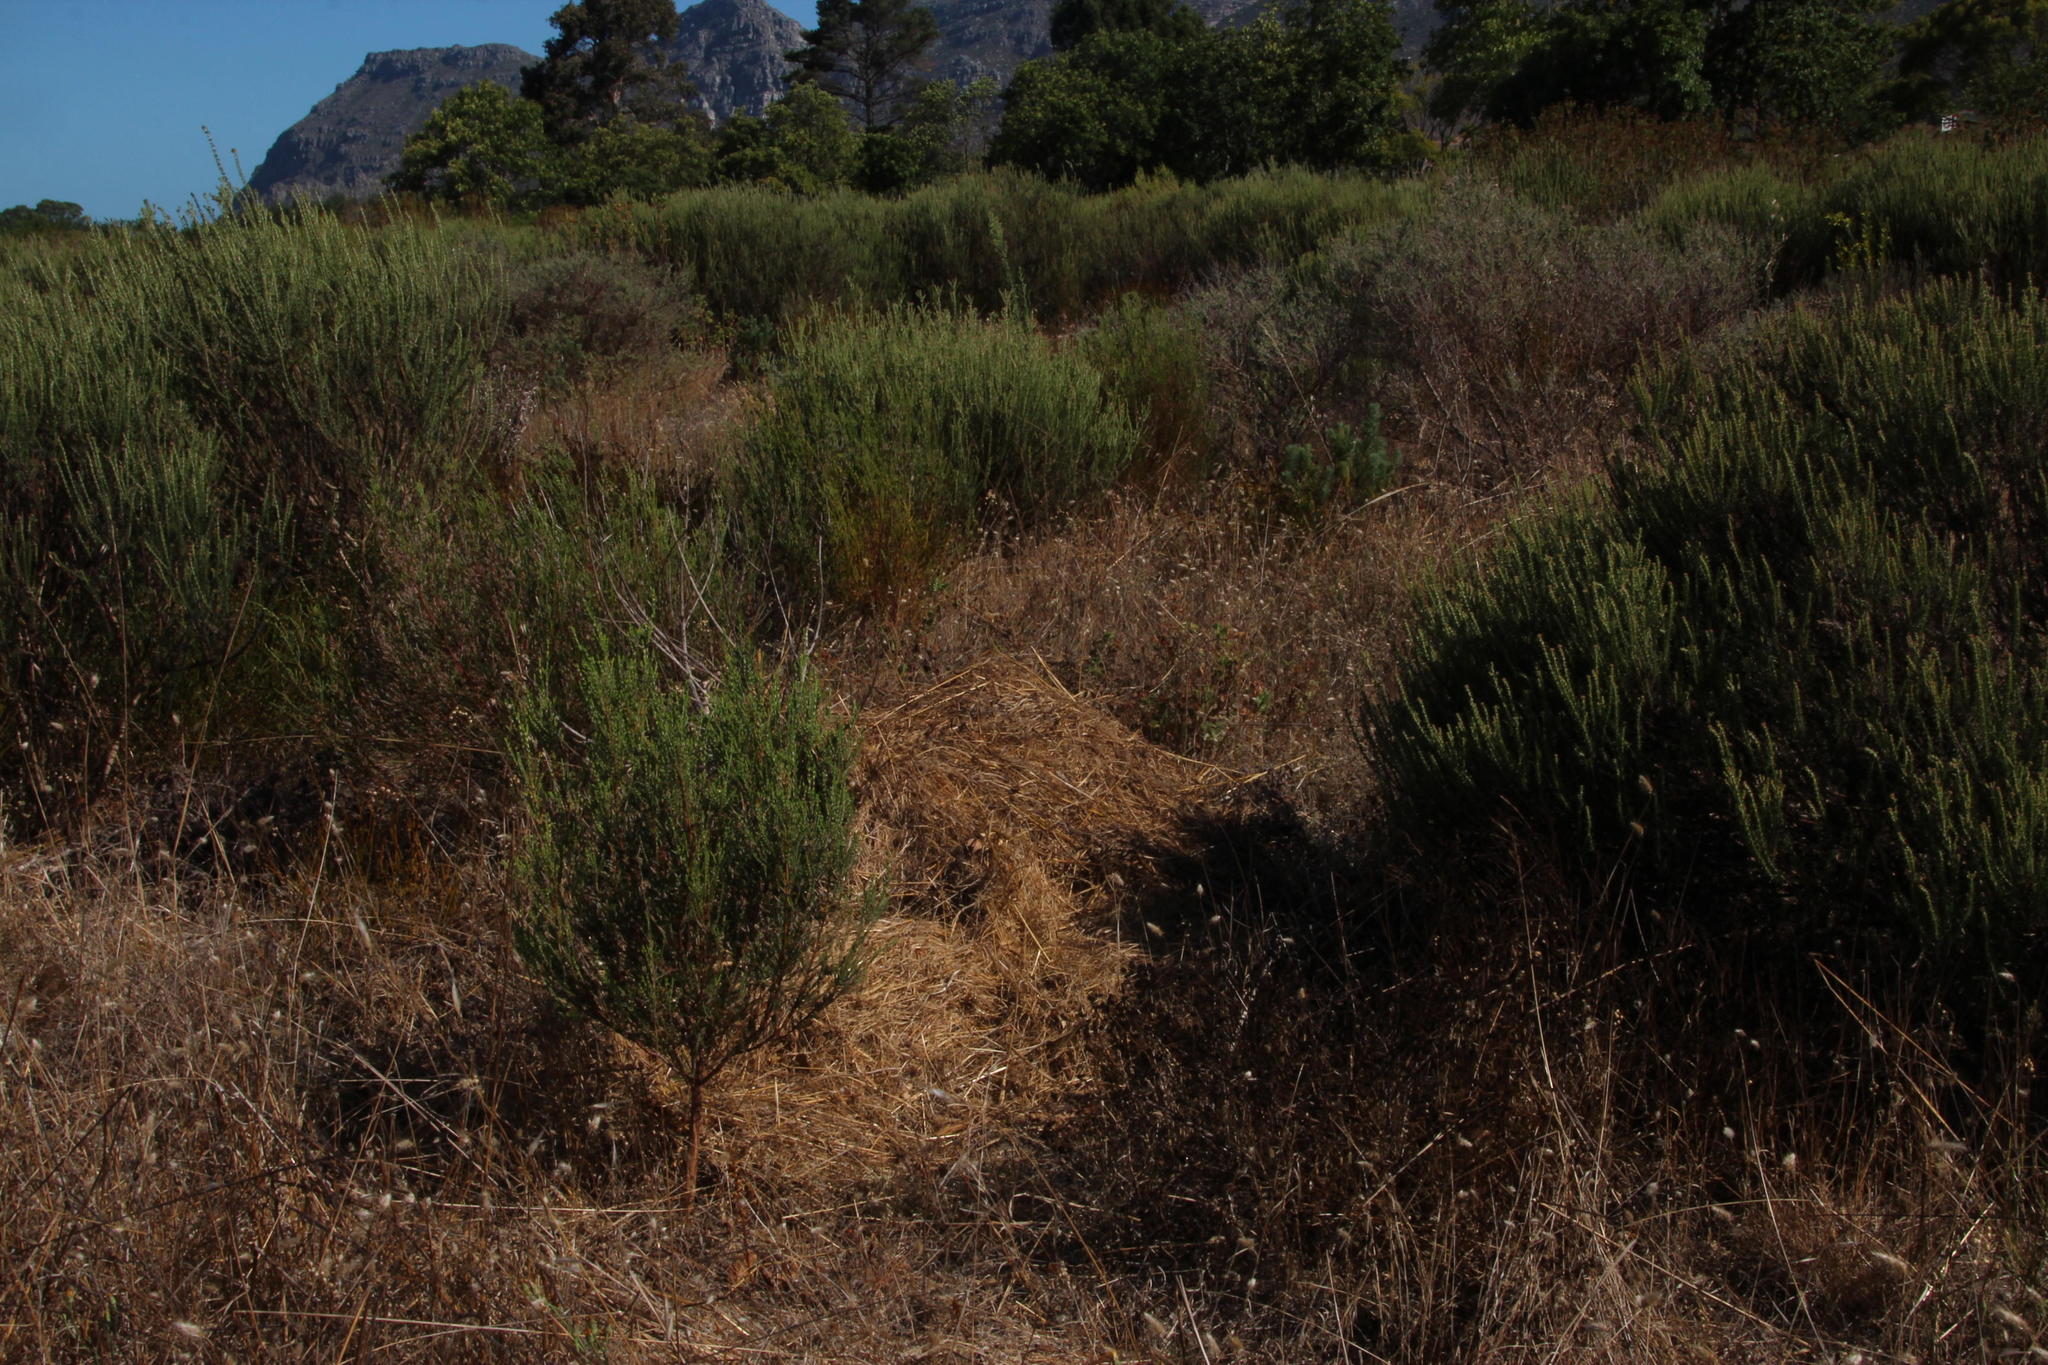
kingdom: Plantae
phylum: Tracheophyta
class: Liliopsida
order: Poales
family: Poaceae
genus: Cenchrus
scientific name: Cenchrus clandestinus
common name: Kikuyugrass
